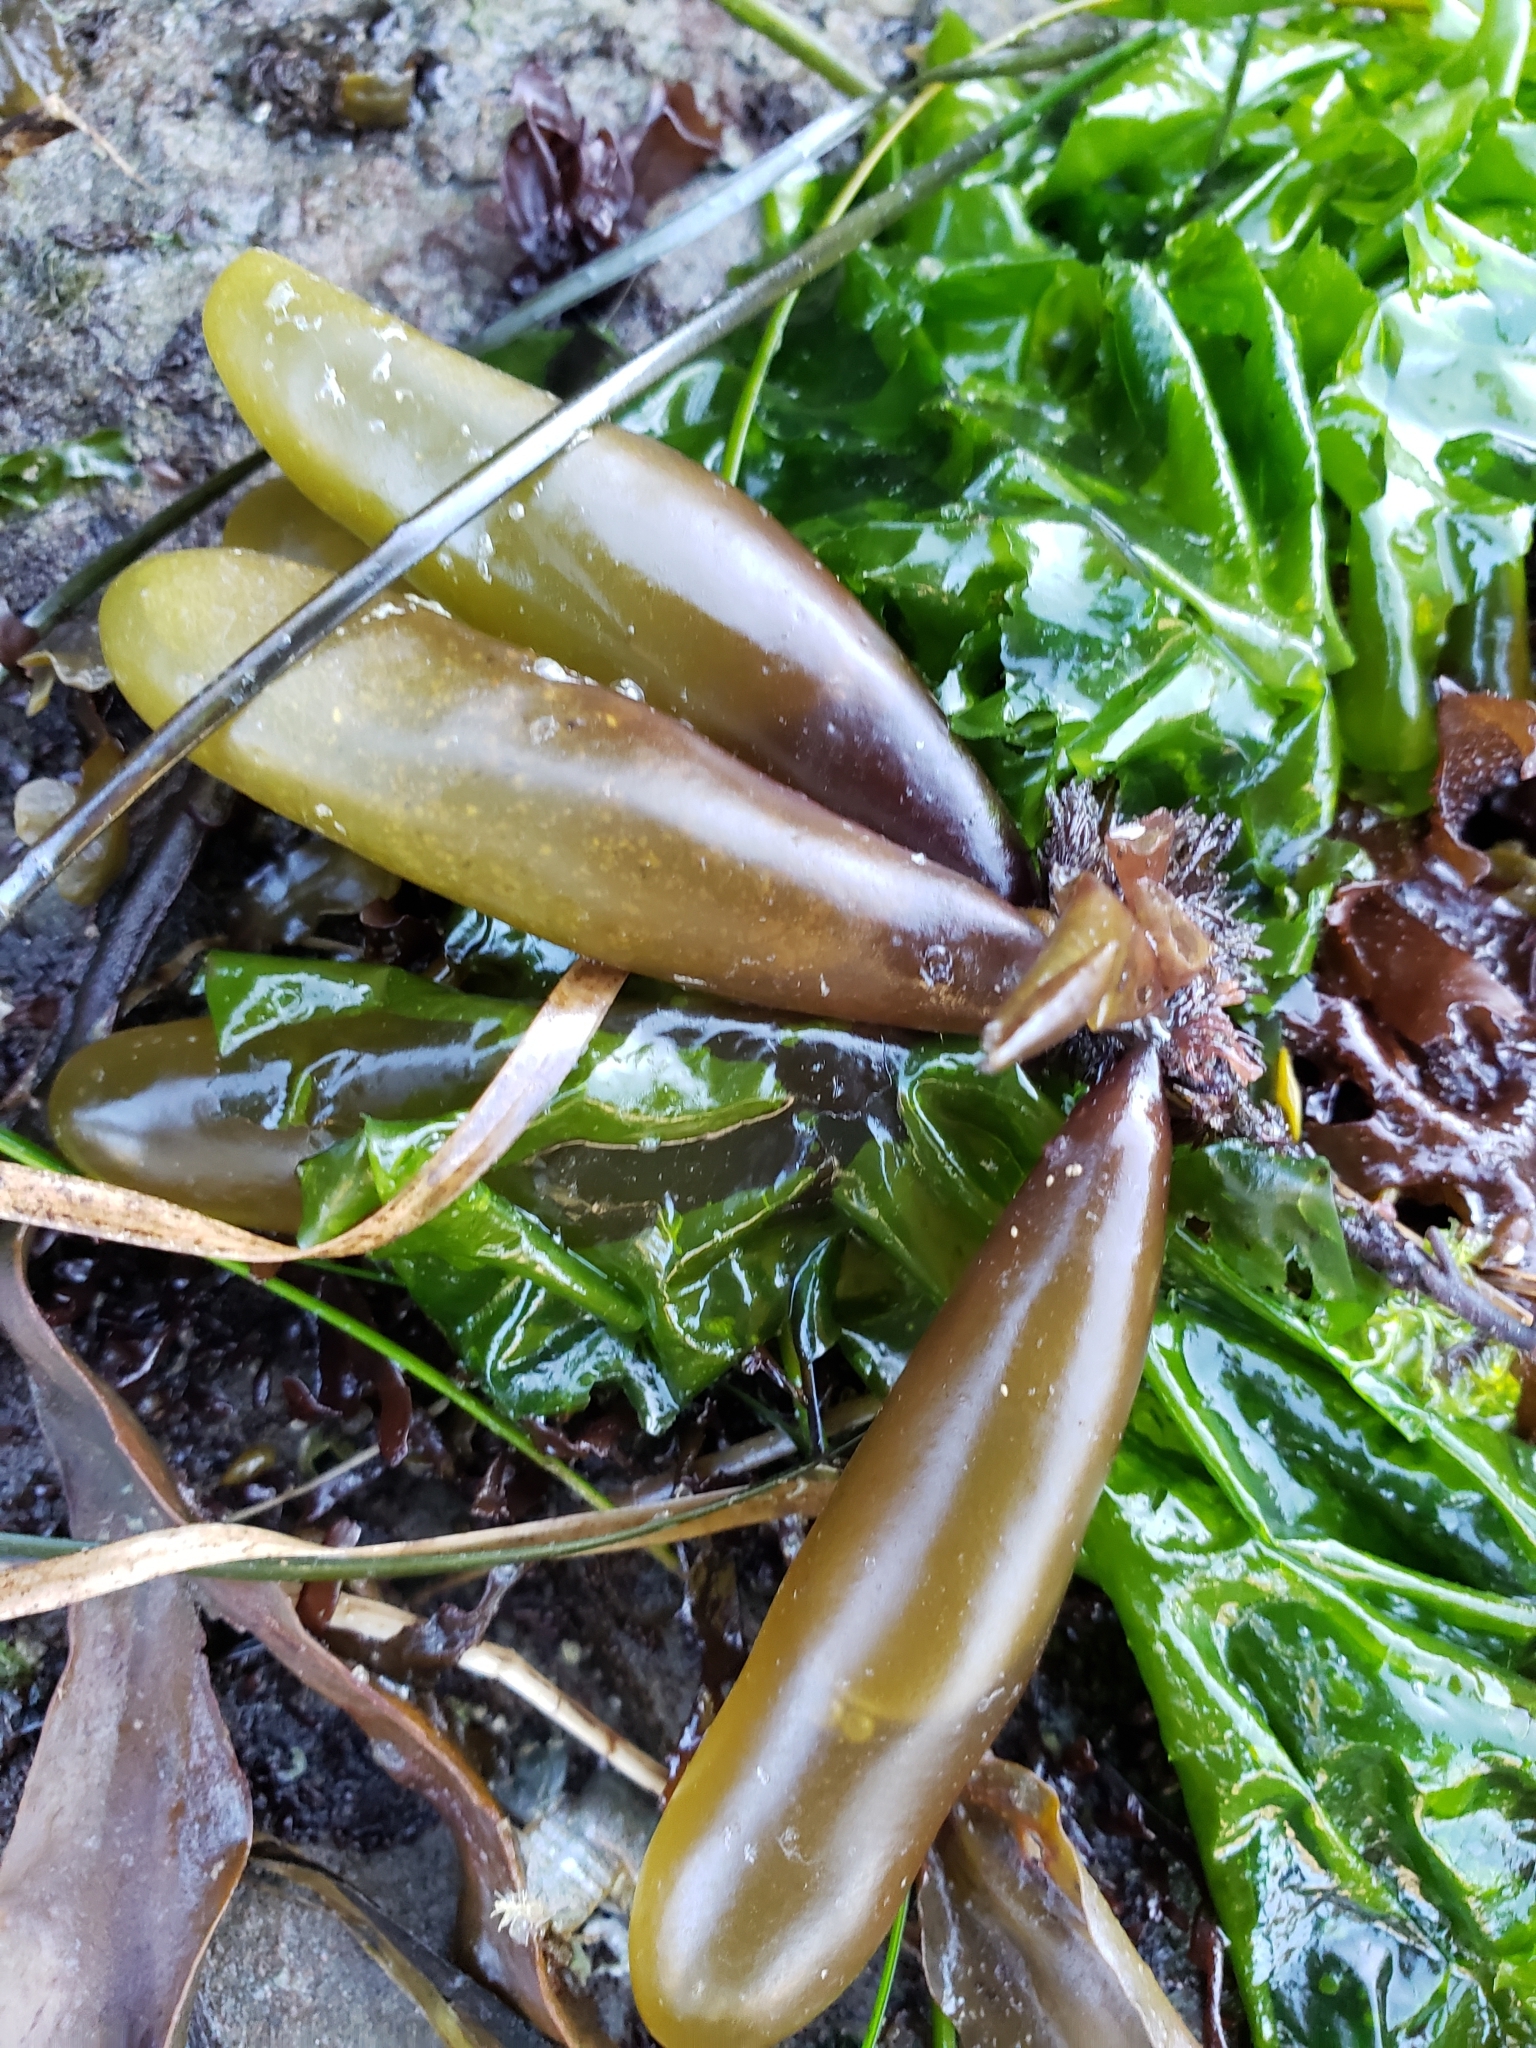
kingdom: Plantae
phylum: Rhodophyta
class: Florideophyceae
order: Palmariales
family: Palmariaceae
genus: Halosaccion
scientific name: Halosaccion glandiforme
